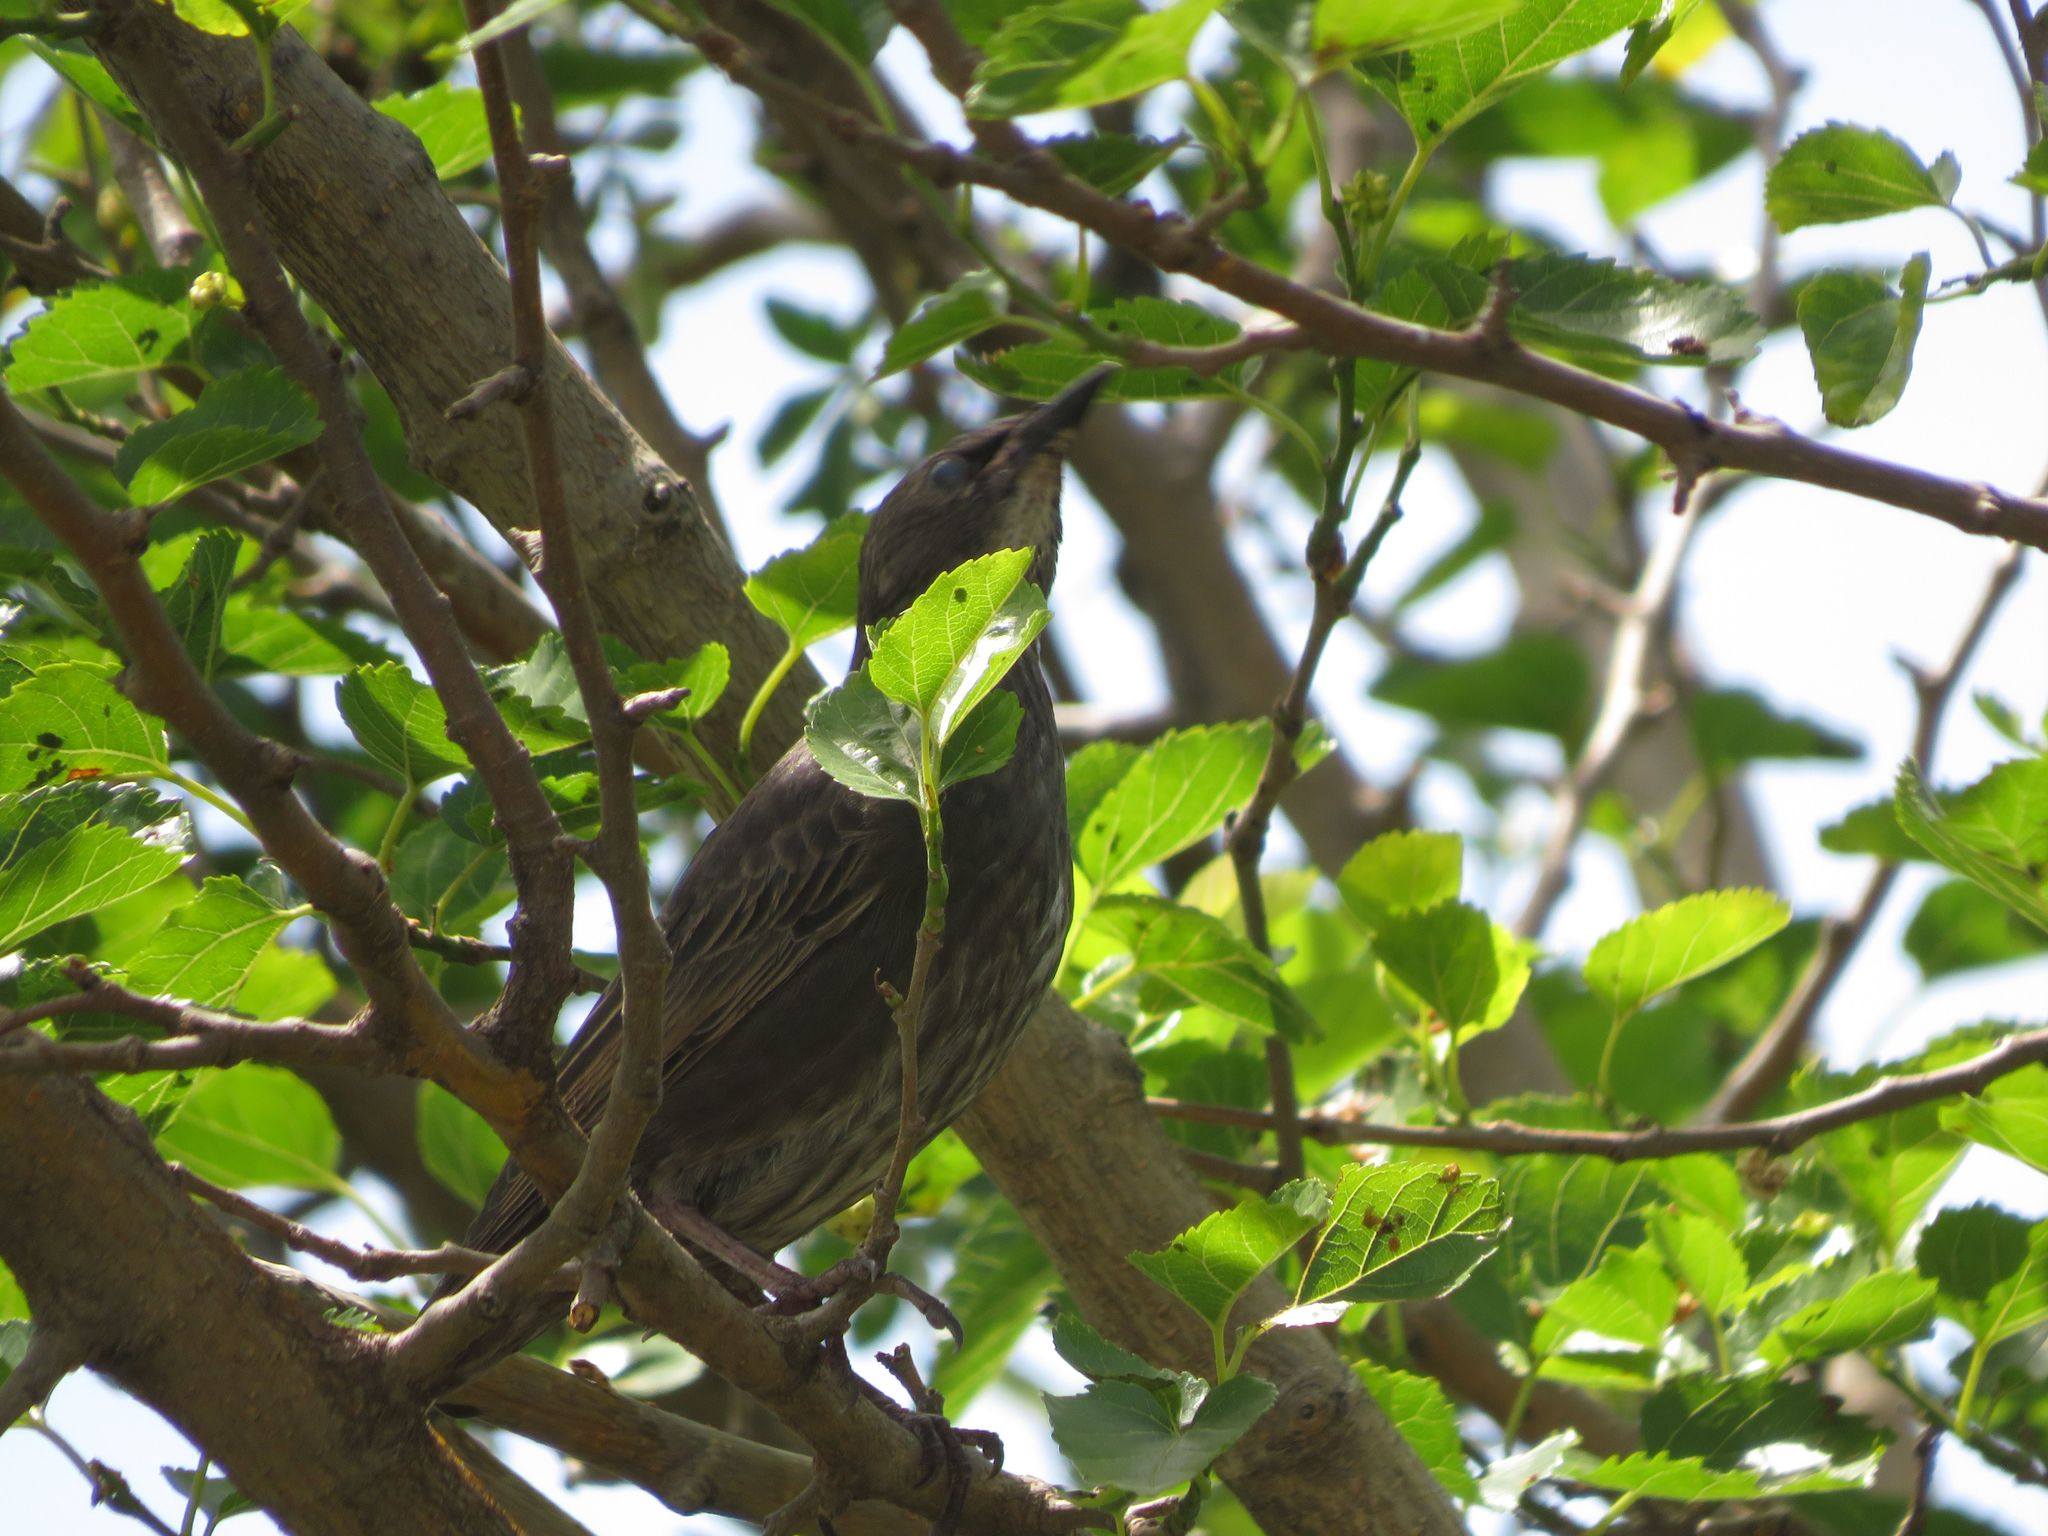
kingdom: Animalia
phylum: Chordata
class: Aves
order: Passeriformes
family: Sturnidae
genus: Sturnus
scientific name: Sturnus vulgaris
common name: Common starling
